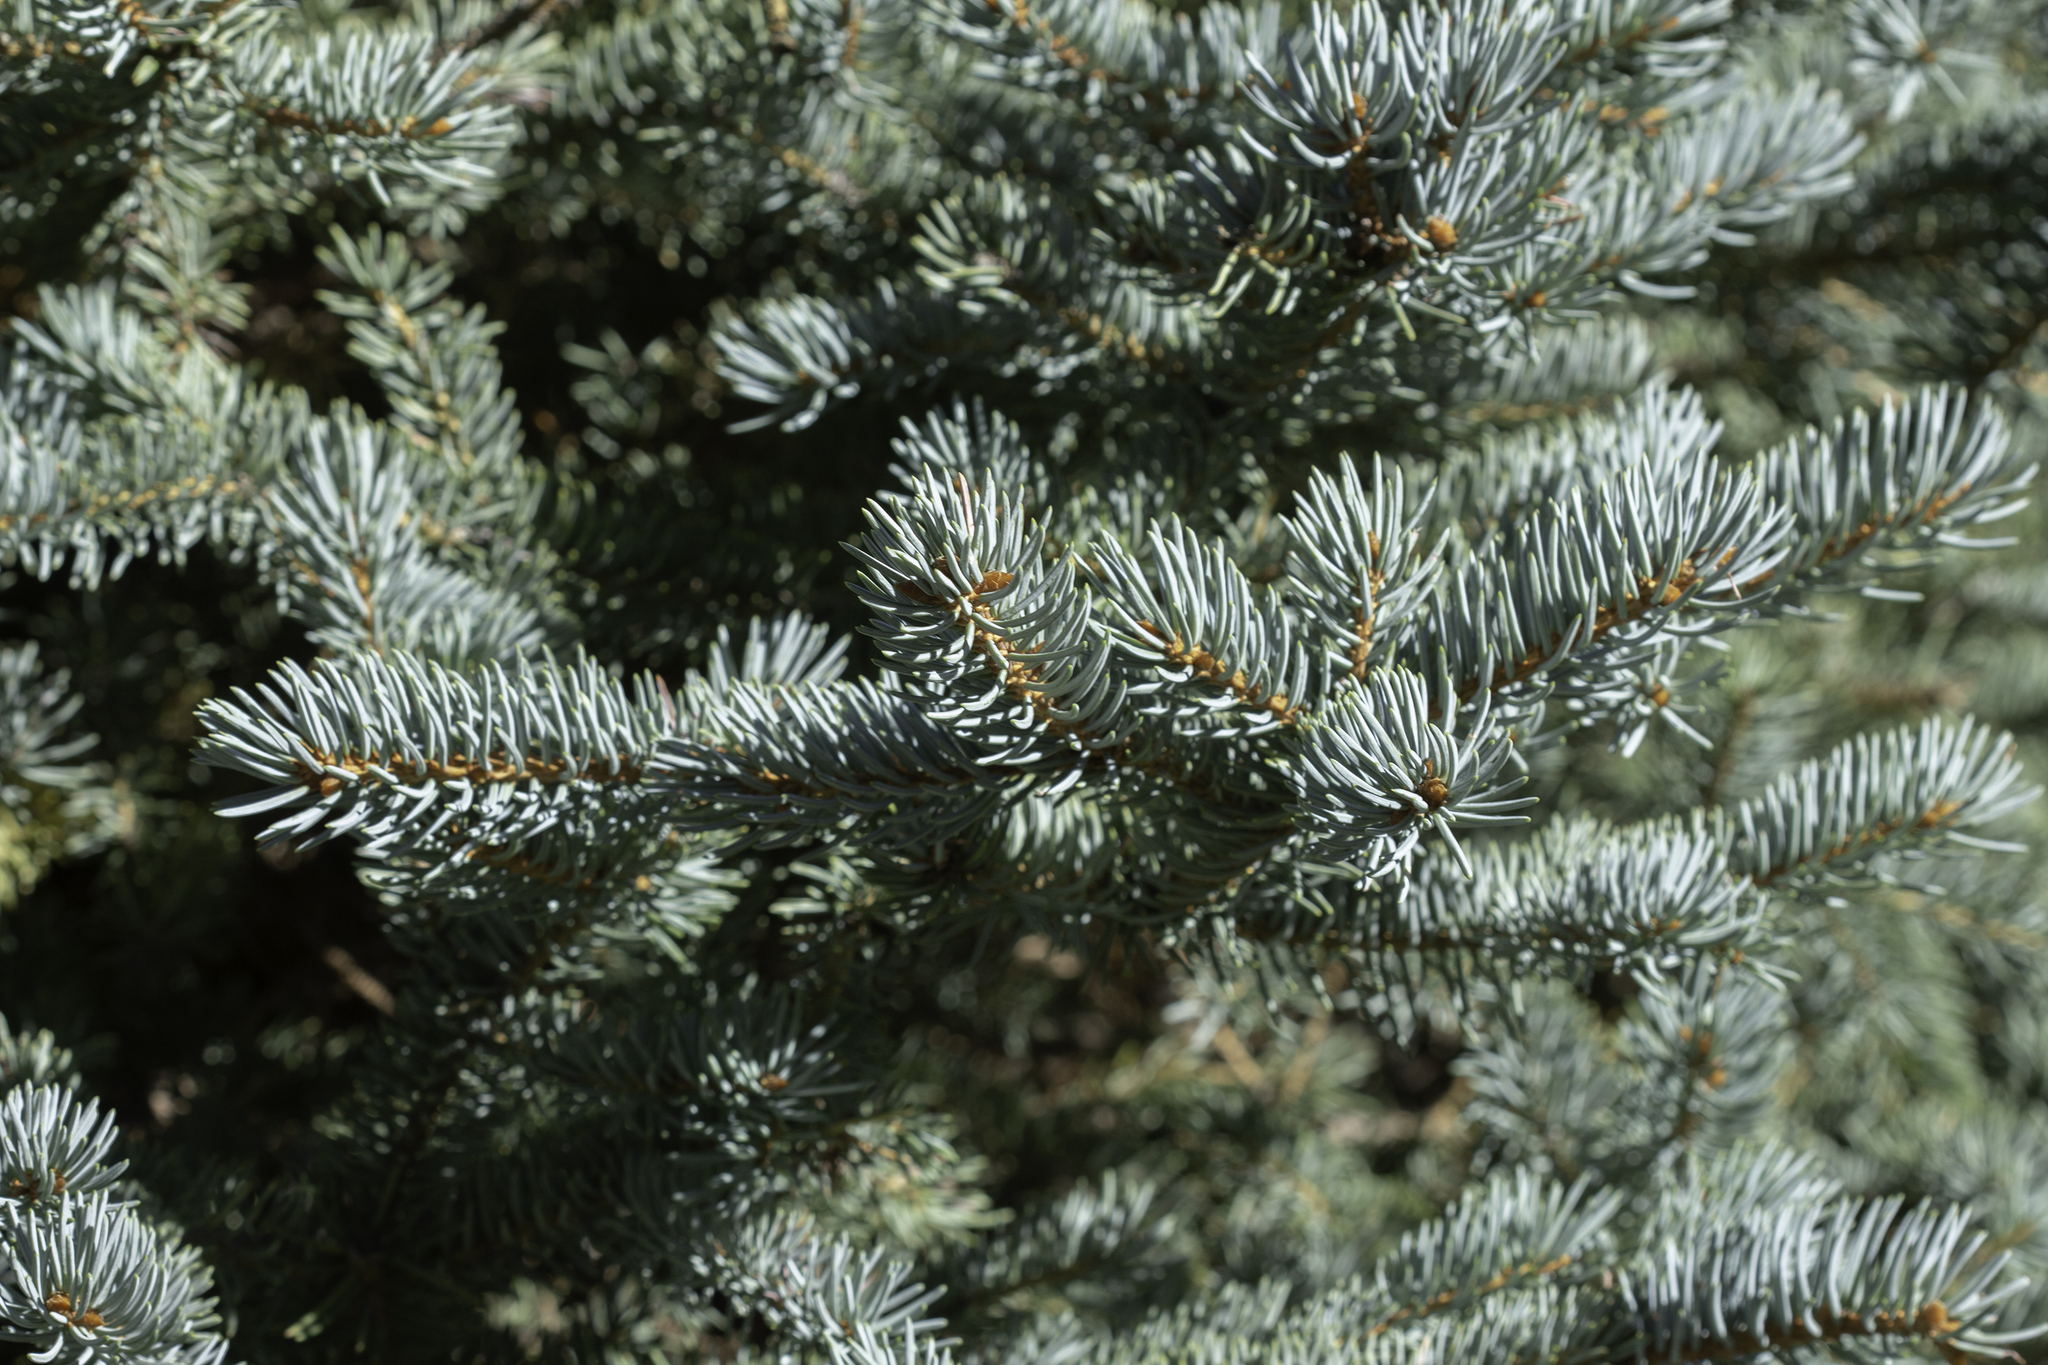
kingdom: Plantae
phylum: Tracheophyta
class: Pinopsida
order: Pinales
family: Pinaceae
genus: Picea
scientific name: Picea pungens
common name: Colorado spruce
